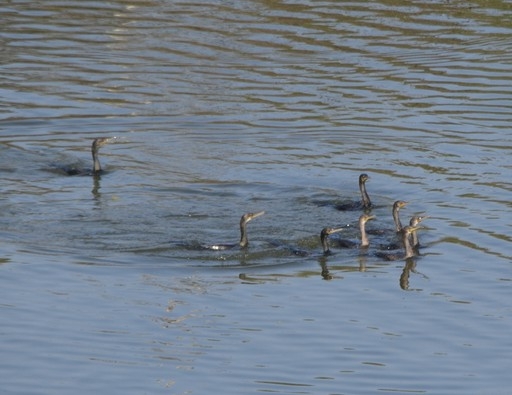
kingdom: Animalia
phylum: Chordata
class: Aves
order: Suliformes
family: Phalacrocoracidae
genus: Phalacrocorax
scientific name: Phalacrocorax fuscicollis
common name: Indian cormorant
